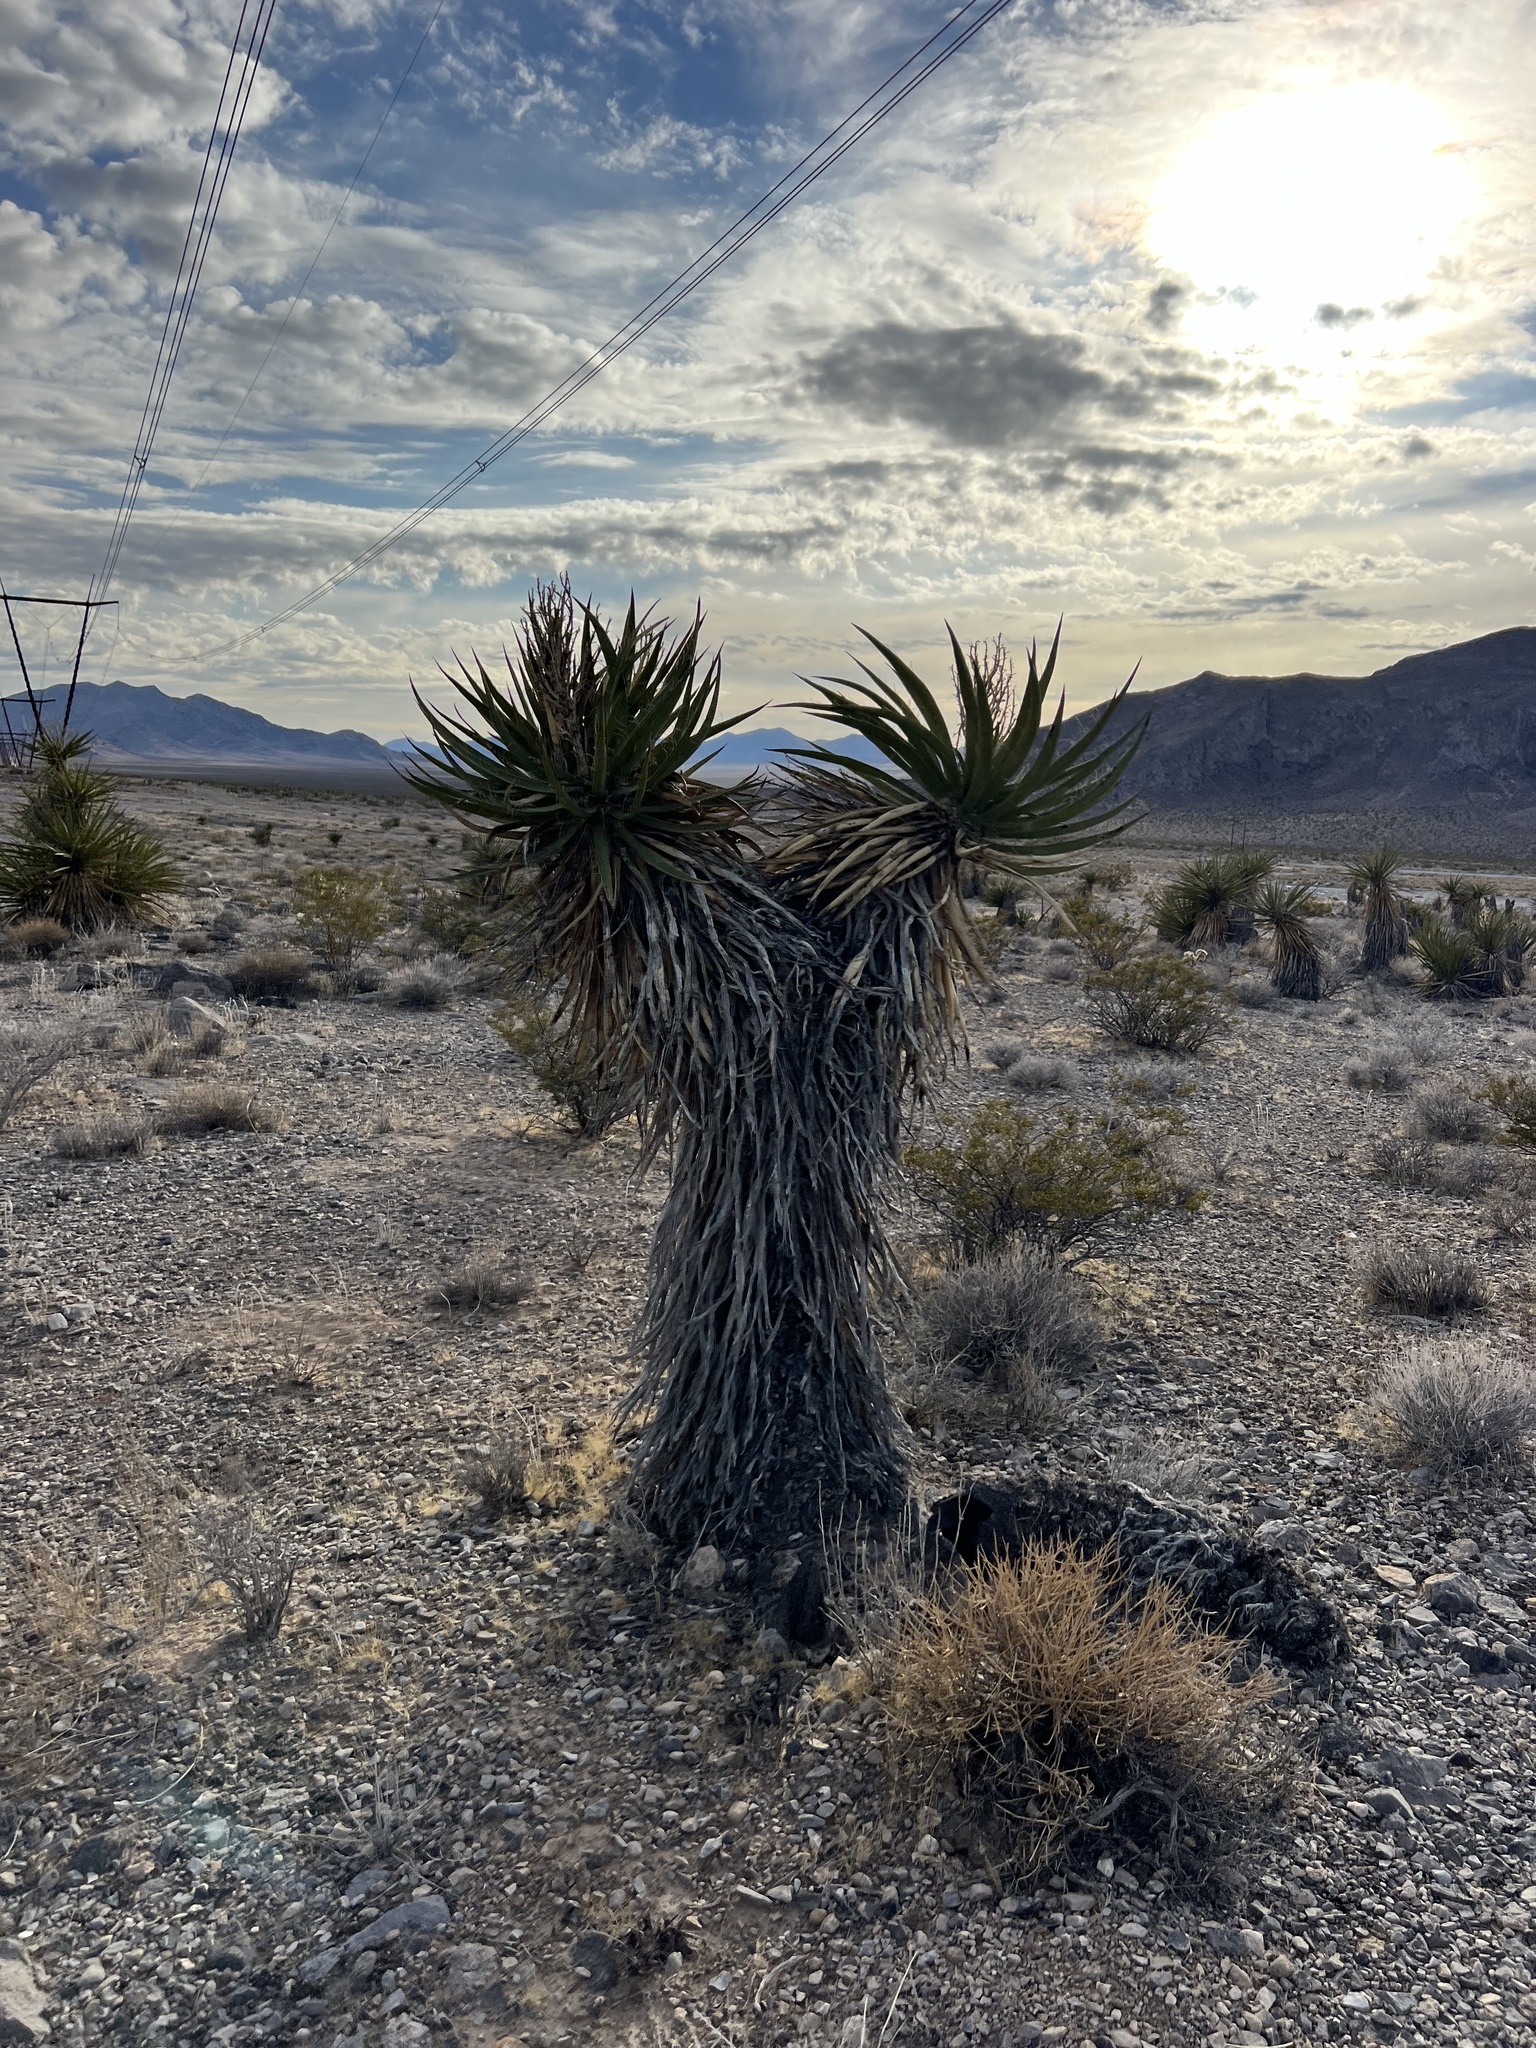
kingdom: Plantae
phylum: Tracheophyta
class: Liliopsida
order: Asparagales
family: Asparagaceae
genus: Yucca
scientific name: Yucca schidigera
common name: Mojave yucca
